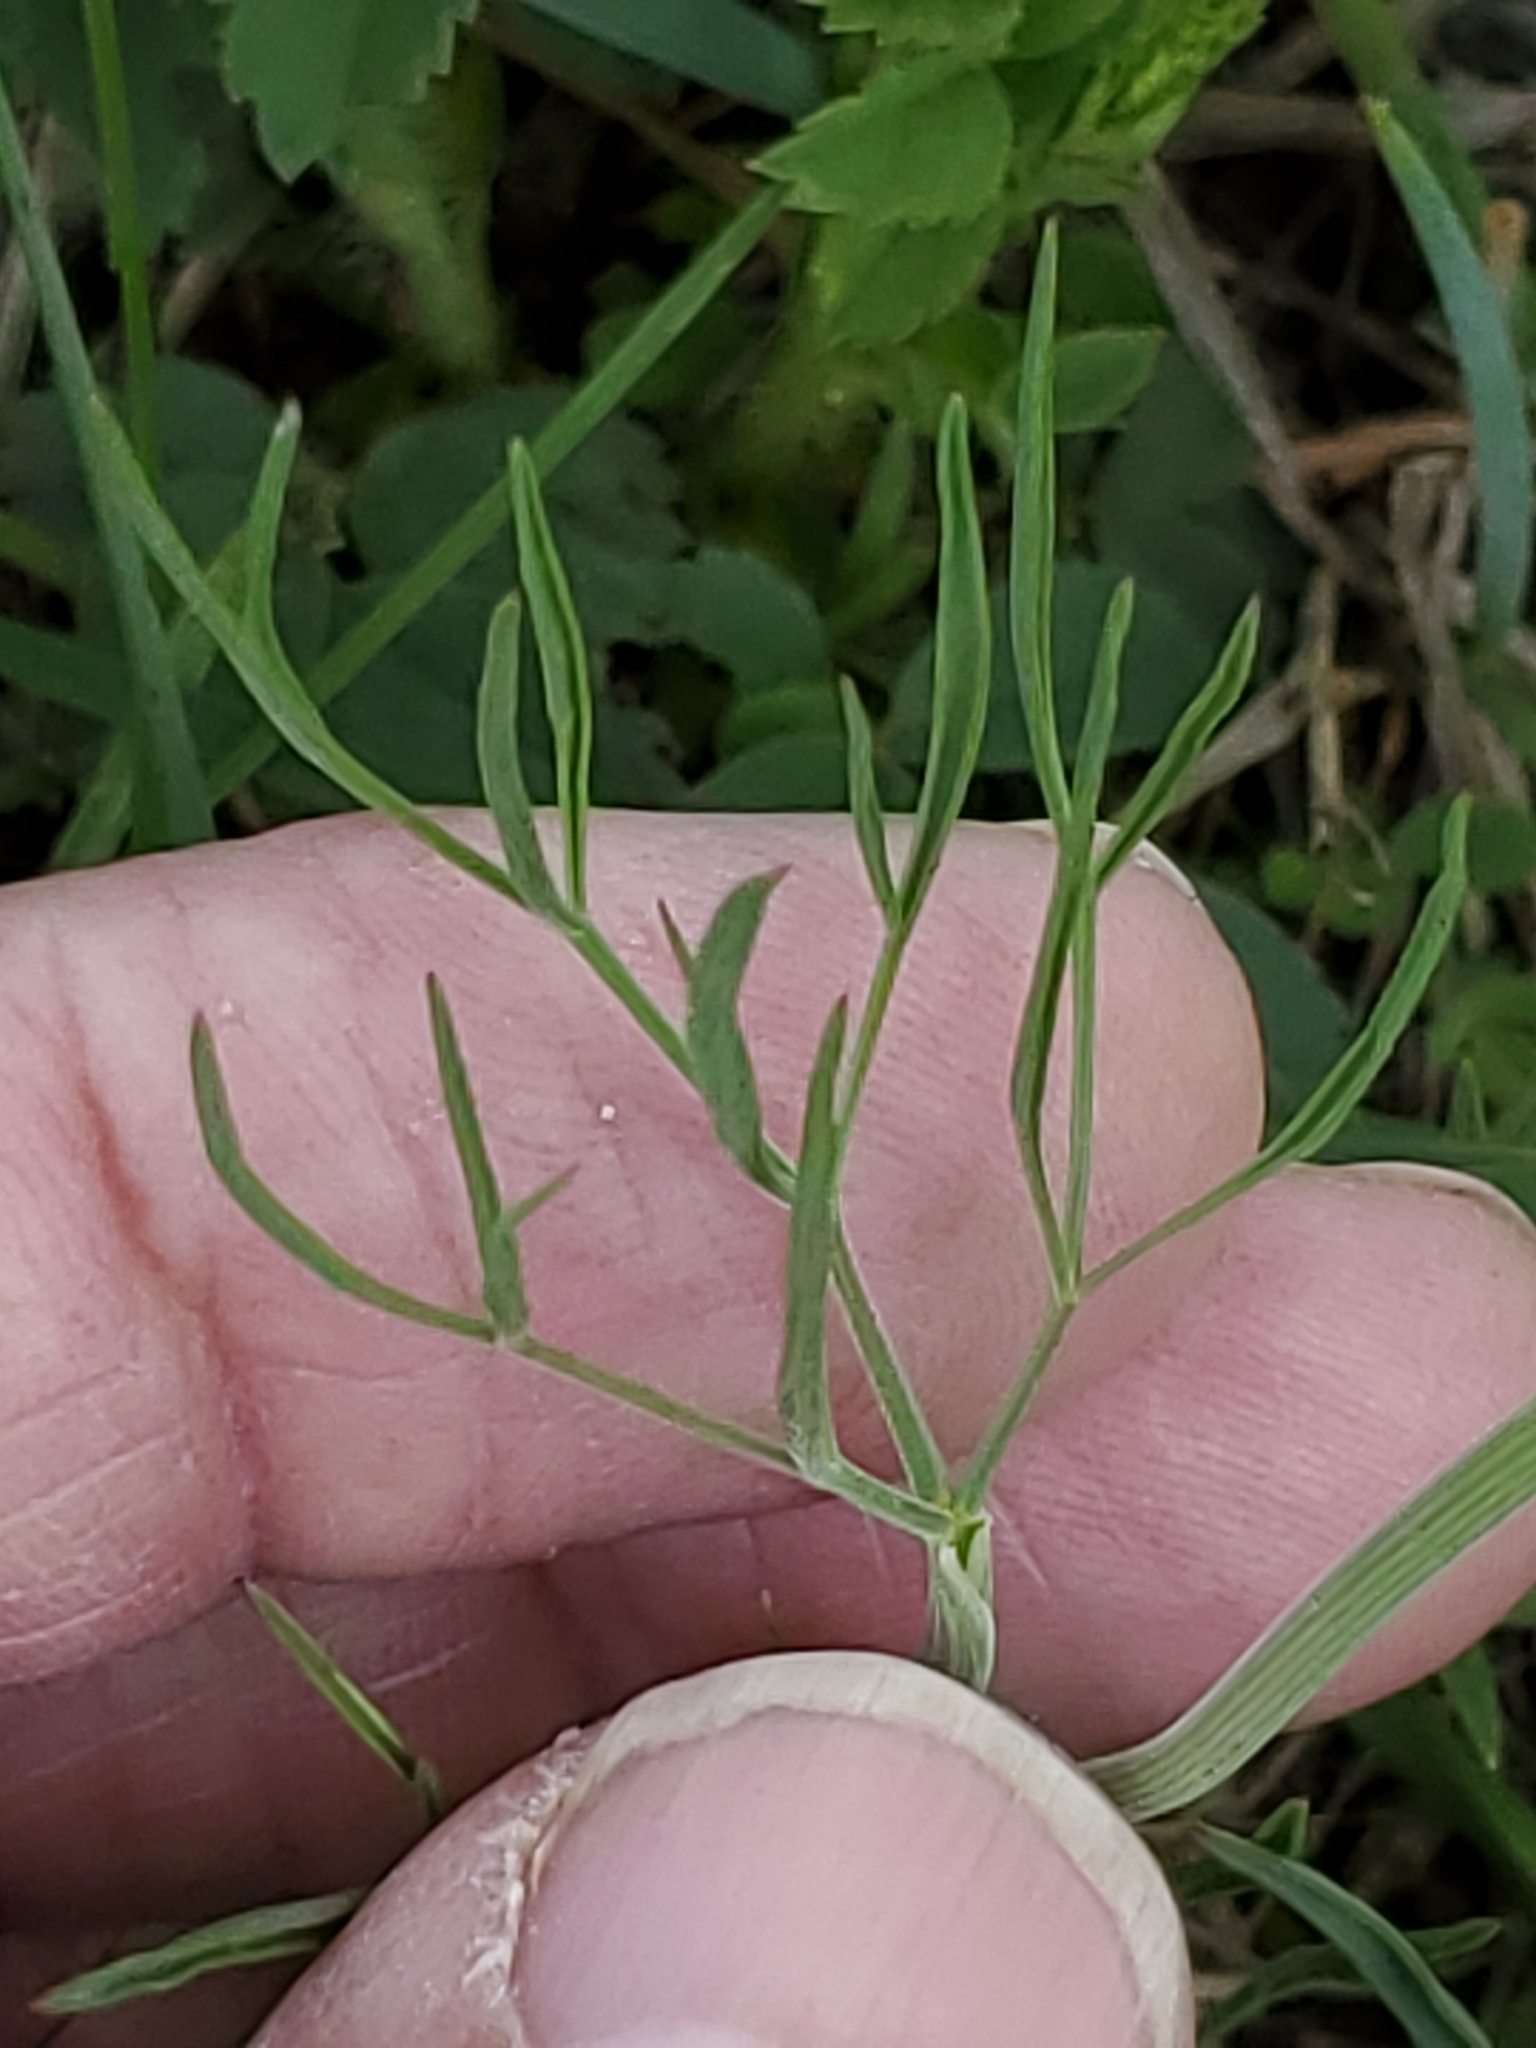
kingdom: Plantae
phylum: Tracheophyta
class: Magnoliopsida
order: Apiales
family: Apiaceae
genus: Lomatium
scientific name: Lomatium triternatum
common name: Ternate lomatium
